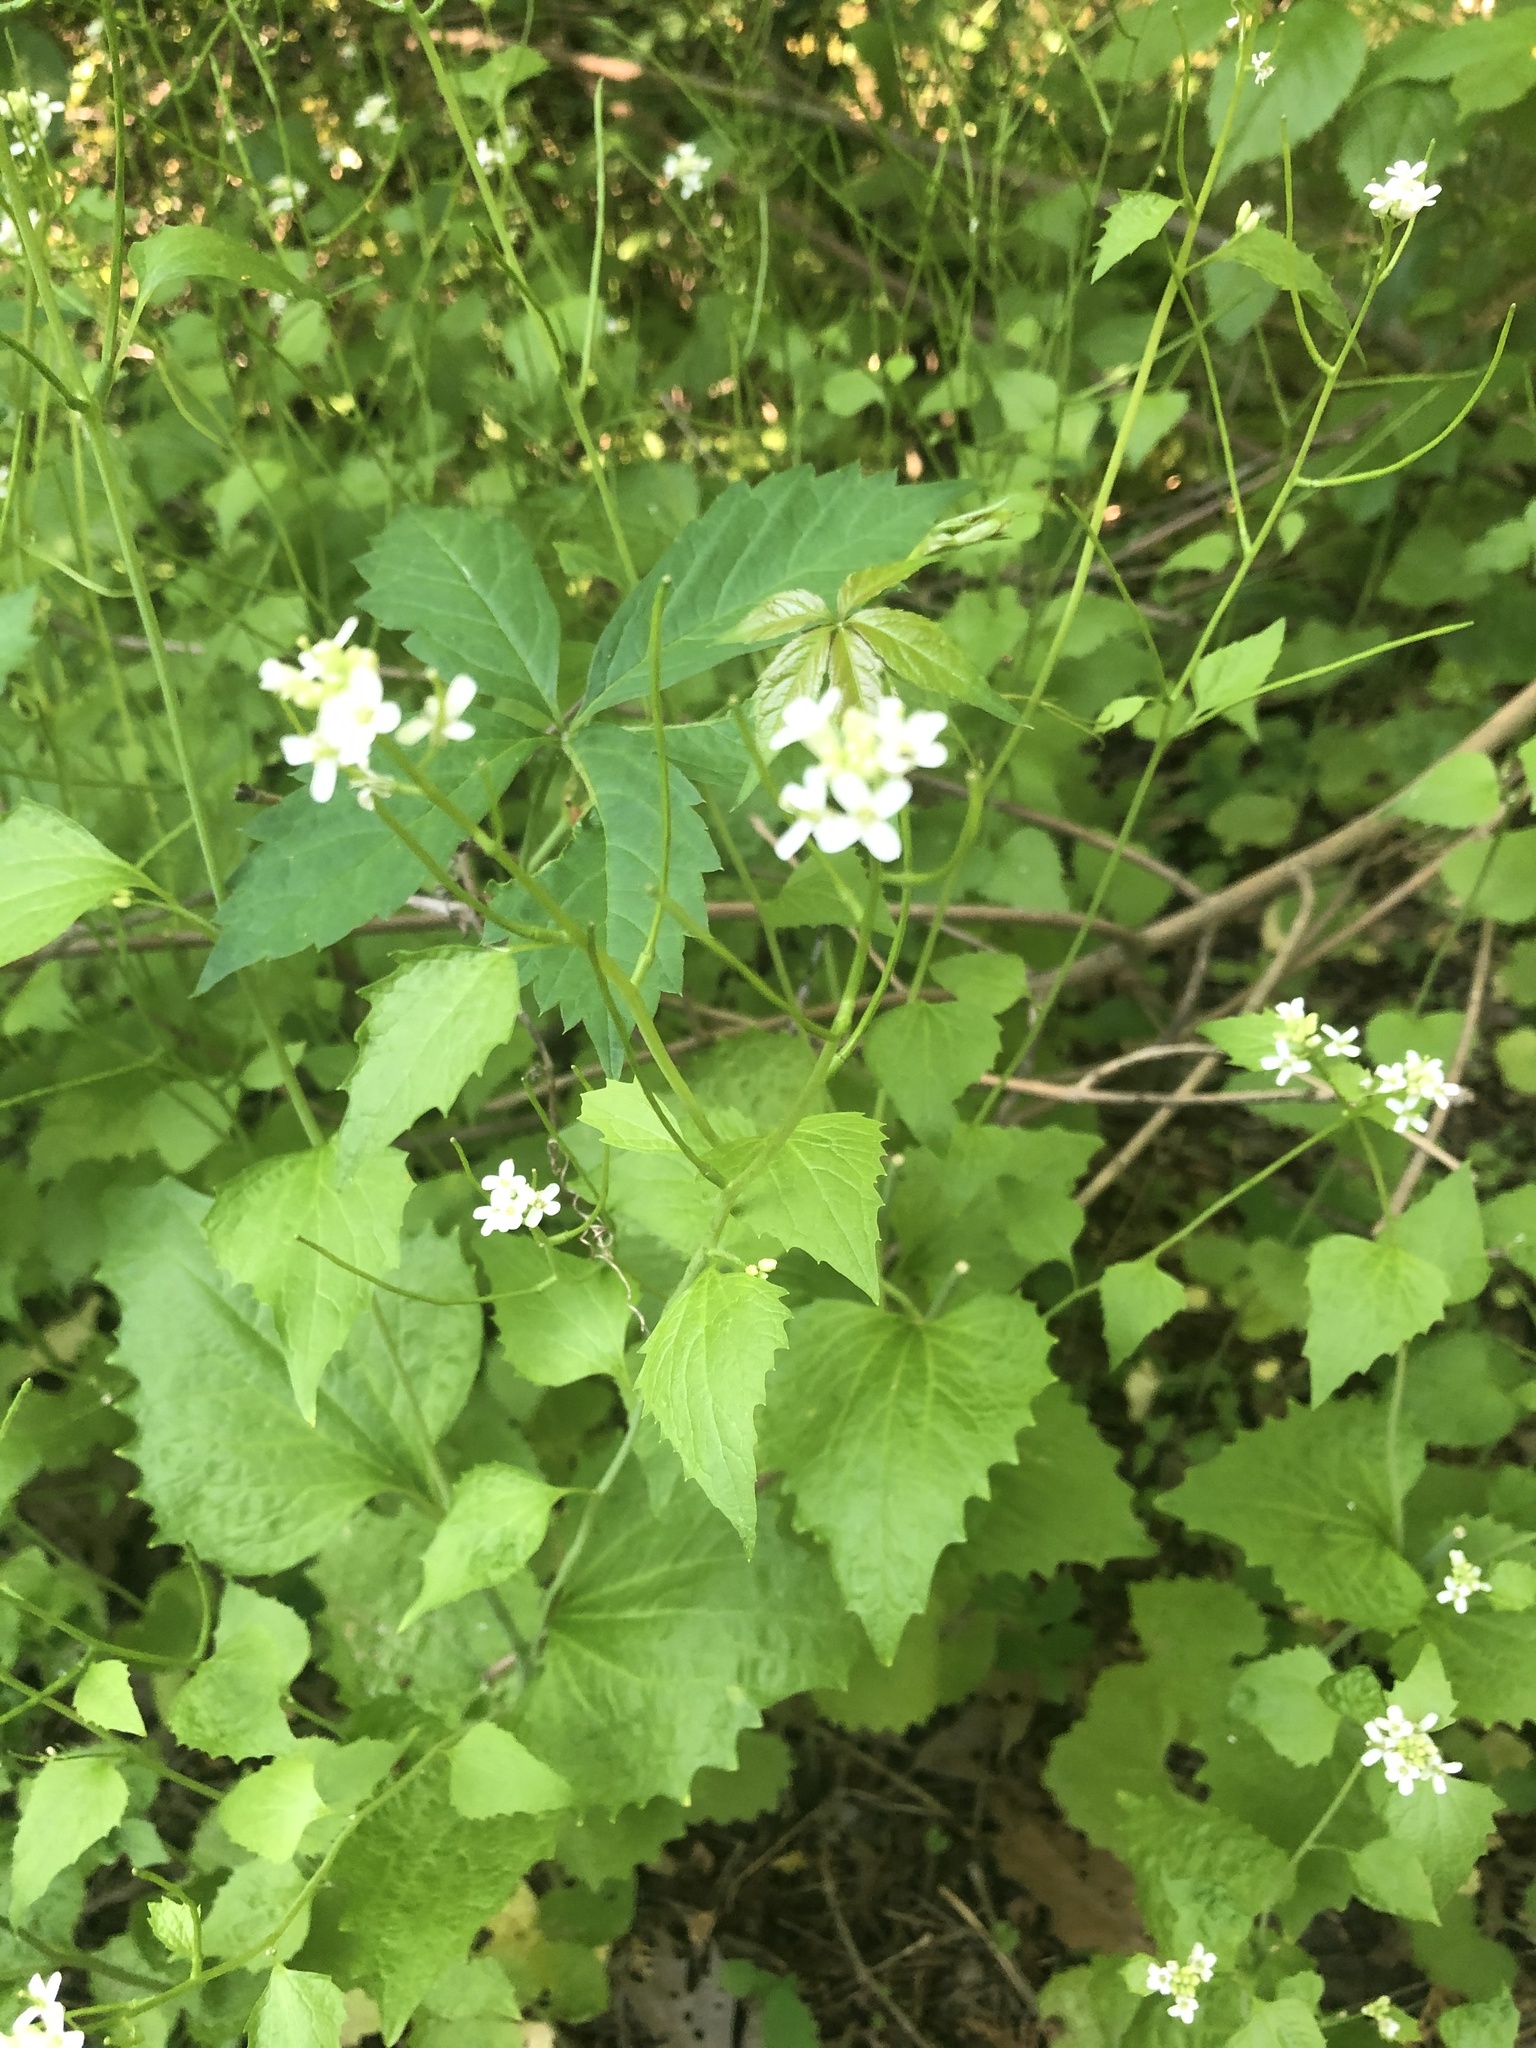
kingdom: Plantae
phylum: Tracheophyta
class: Magnoliopsida
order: Brassicales
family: Brassicaceae
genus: Alliaria
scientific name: Alliaria petiolata
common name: Garlic mustard
